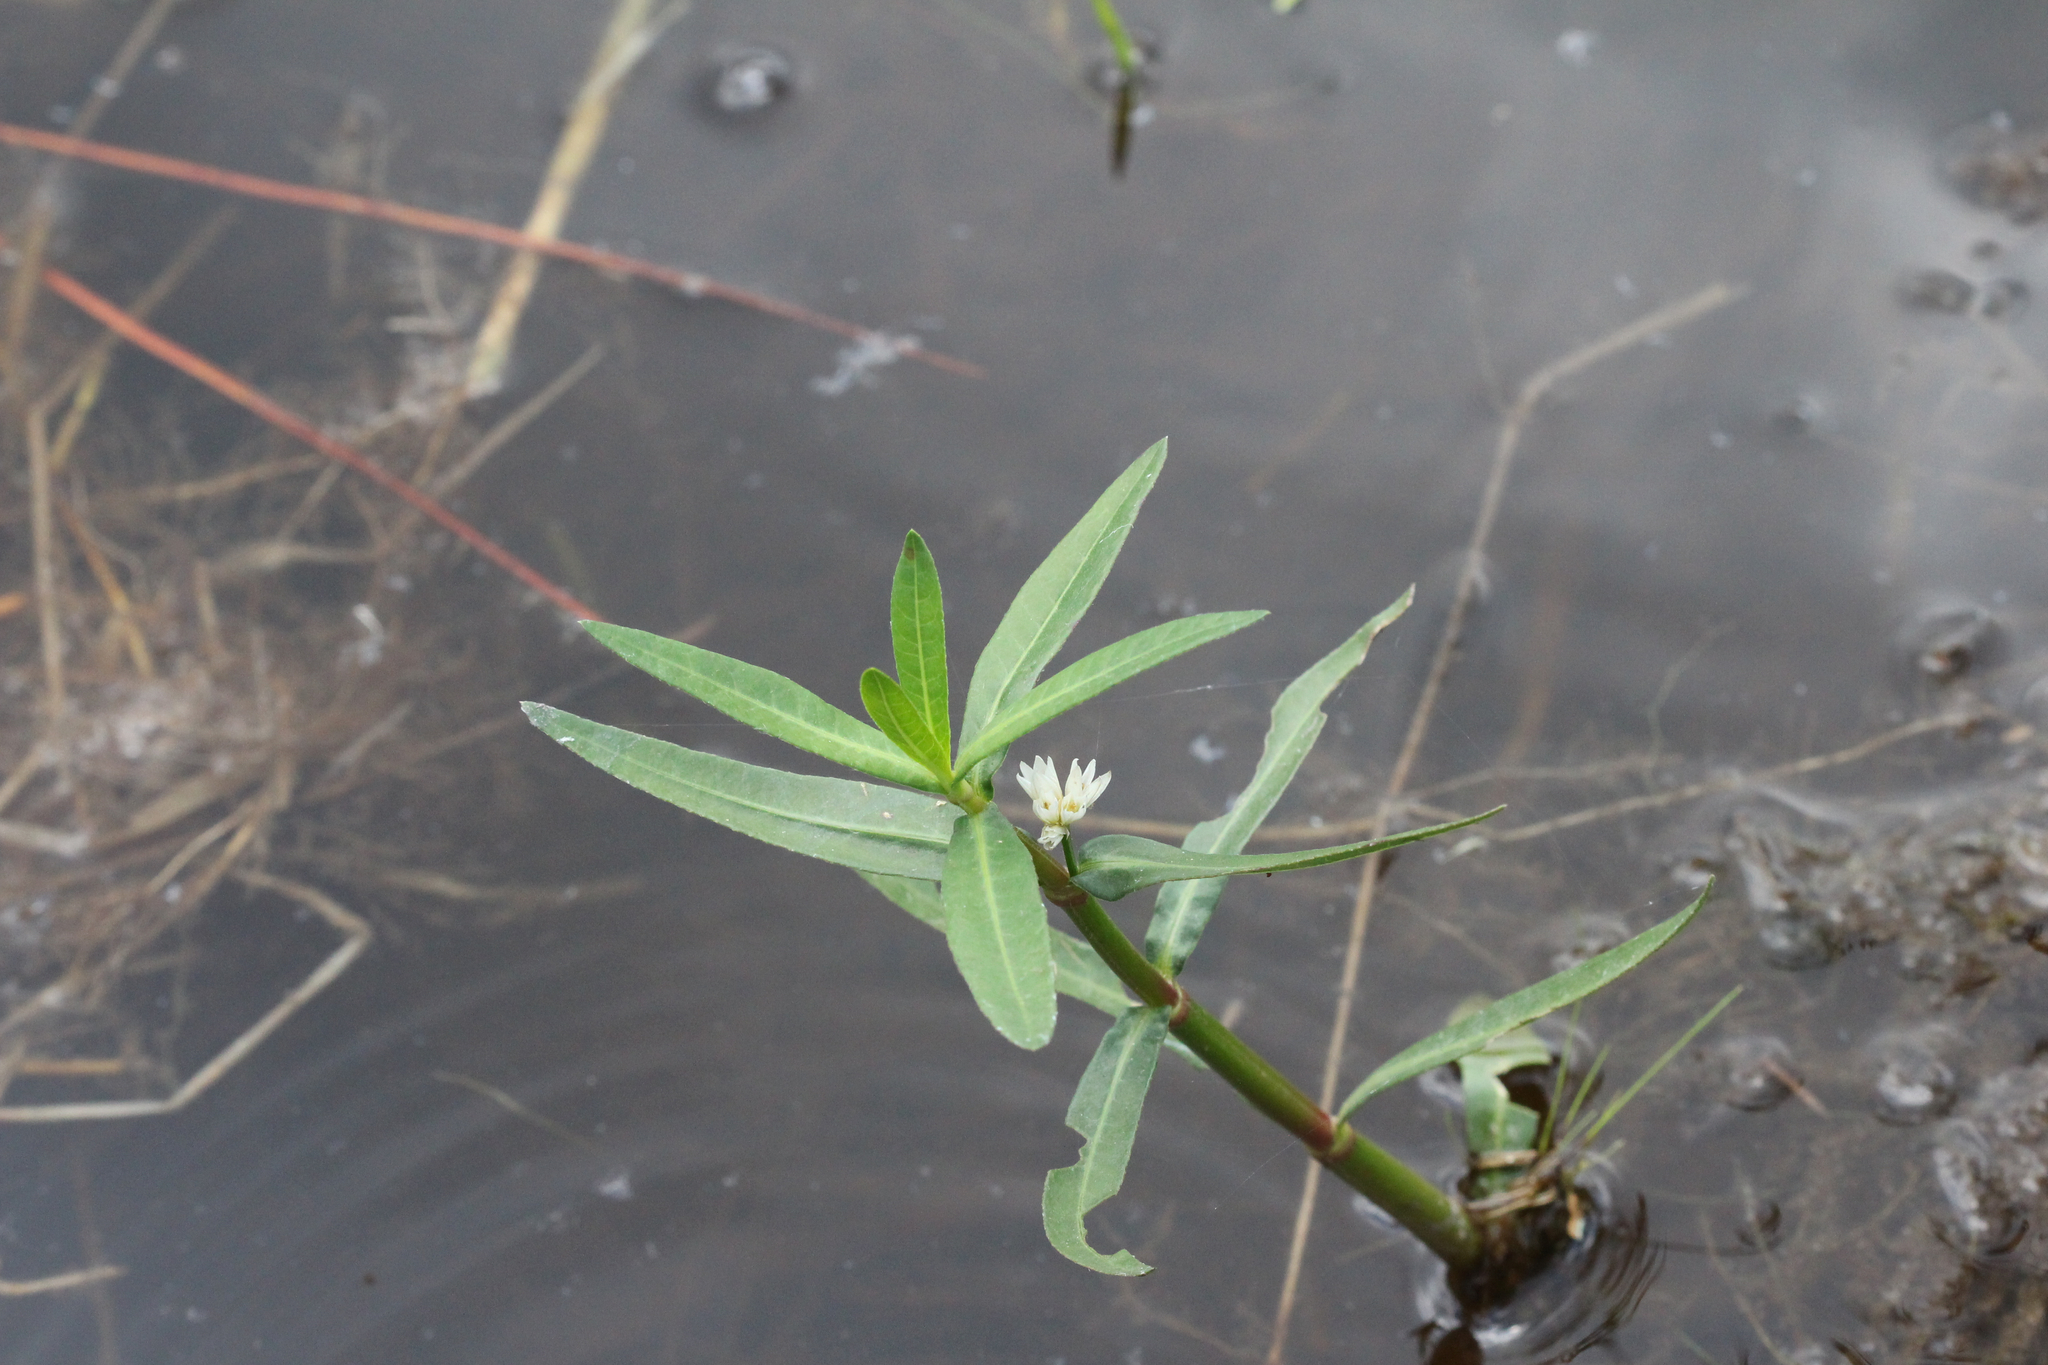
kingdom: Plantae
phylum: Tracheophyta
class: Magnoliopsida
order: Caryophyllales
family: Amaranthaceae
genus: Alternanthera
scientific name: Alternanthera philoxeroides
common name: Alligatorweed
